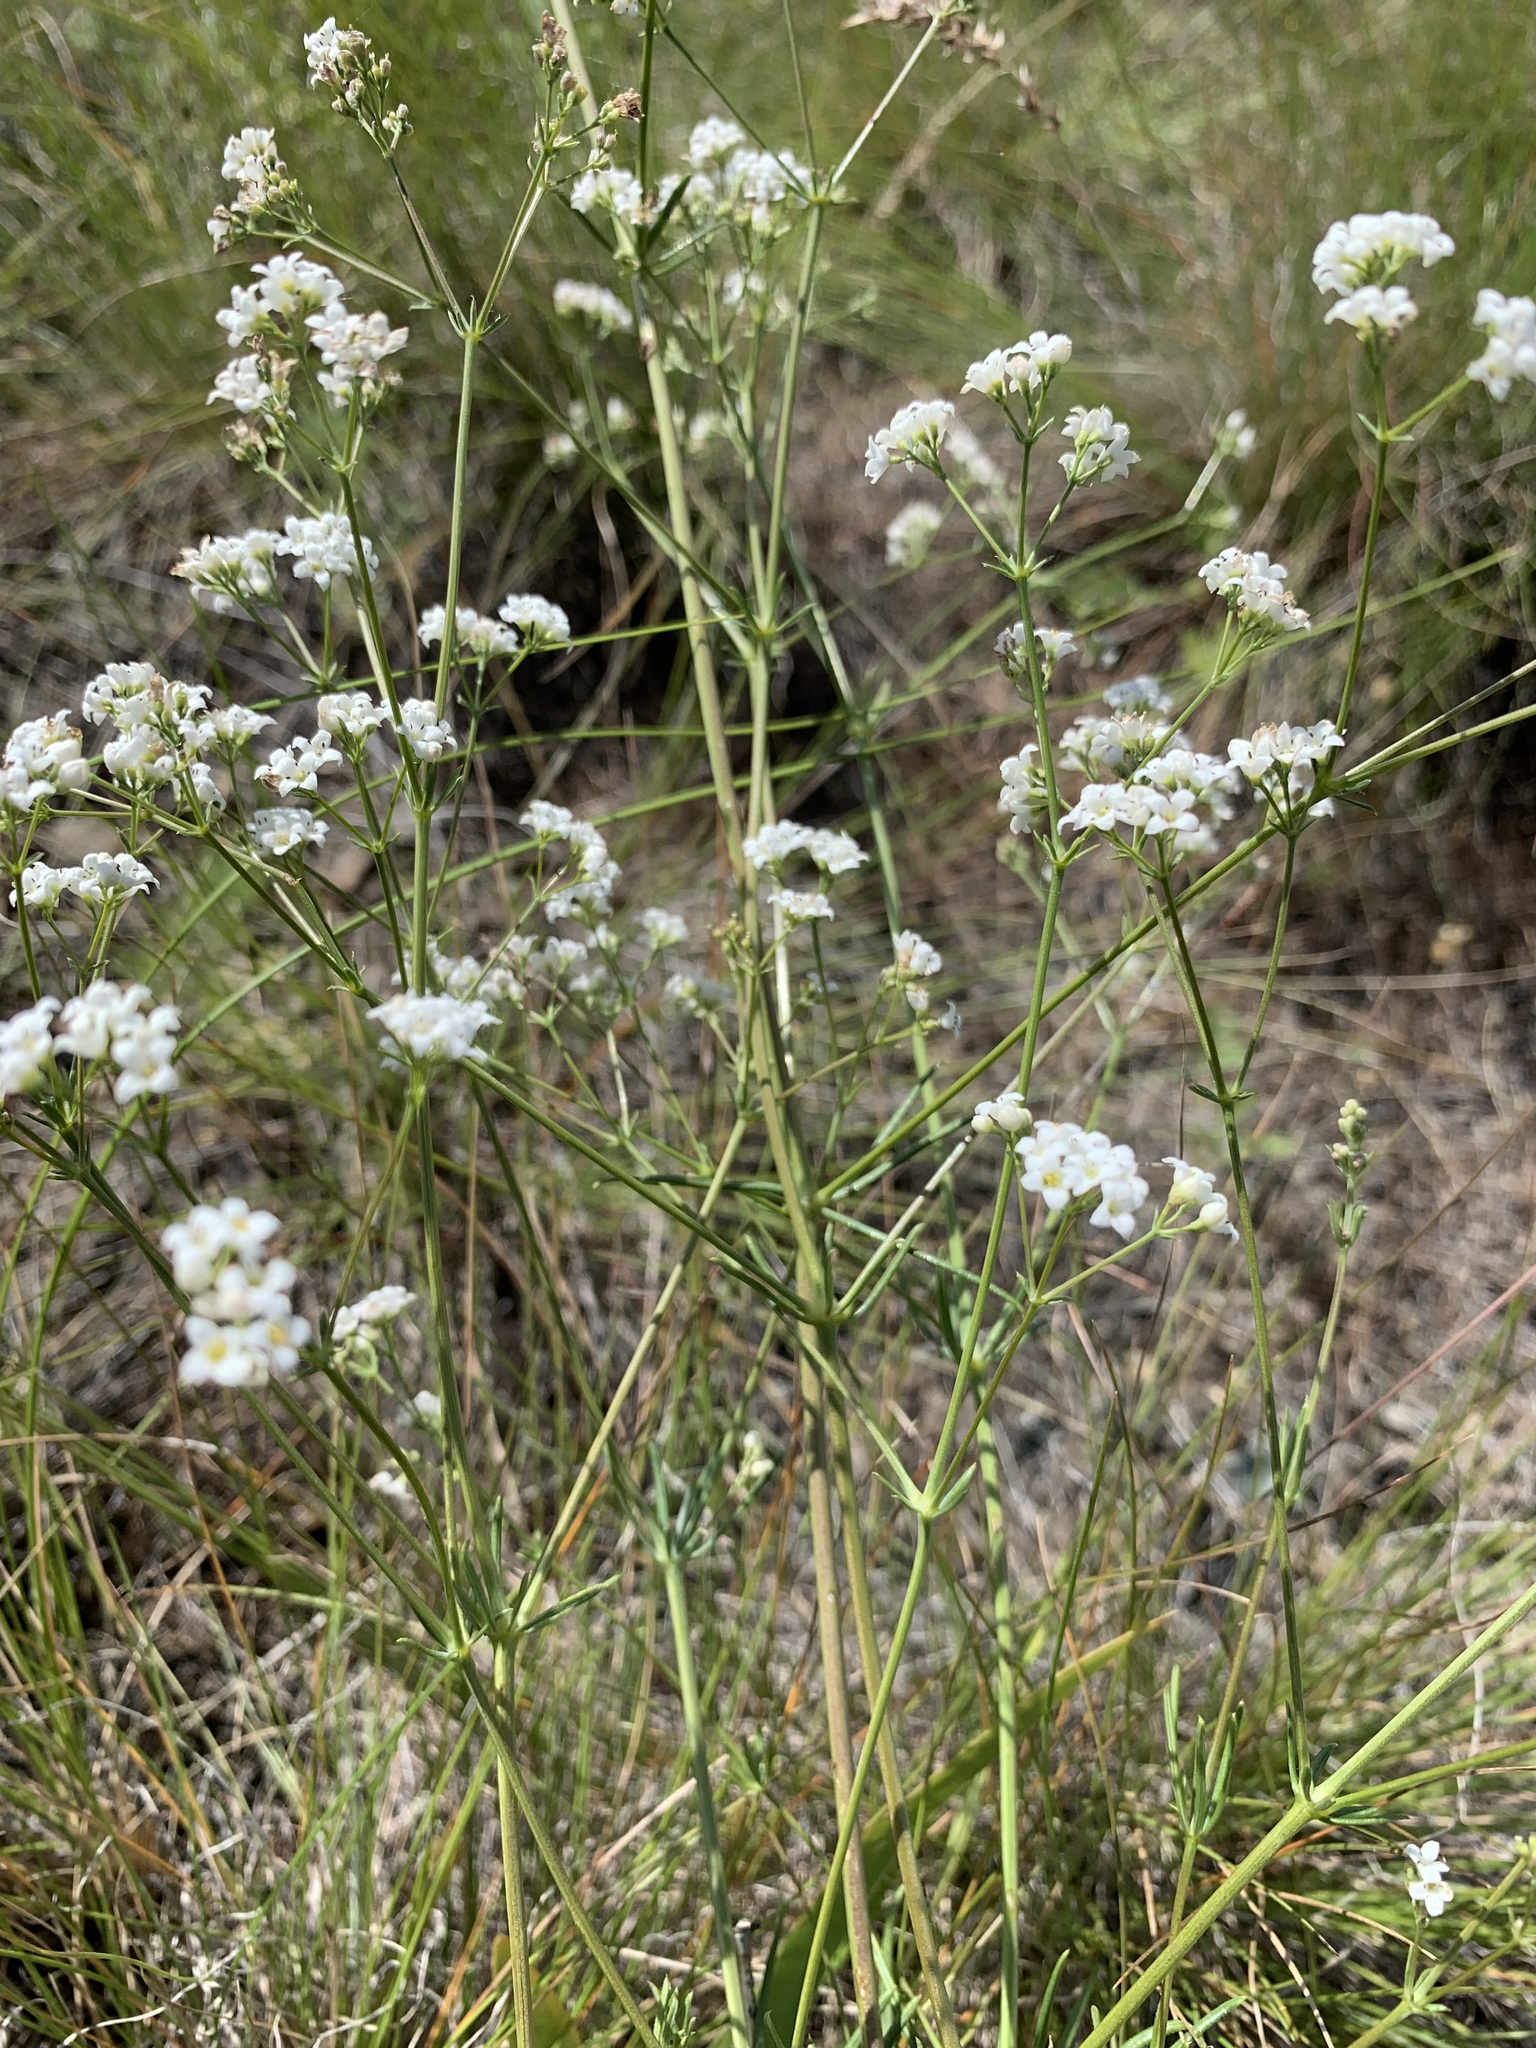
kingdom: Plantae
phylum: Tracheophyta
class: Magnoliopsida
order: Gentianales
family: Rubiaceae
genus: Galium
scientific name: Galium hexanarium
